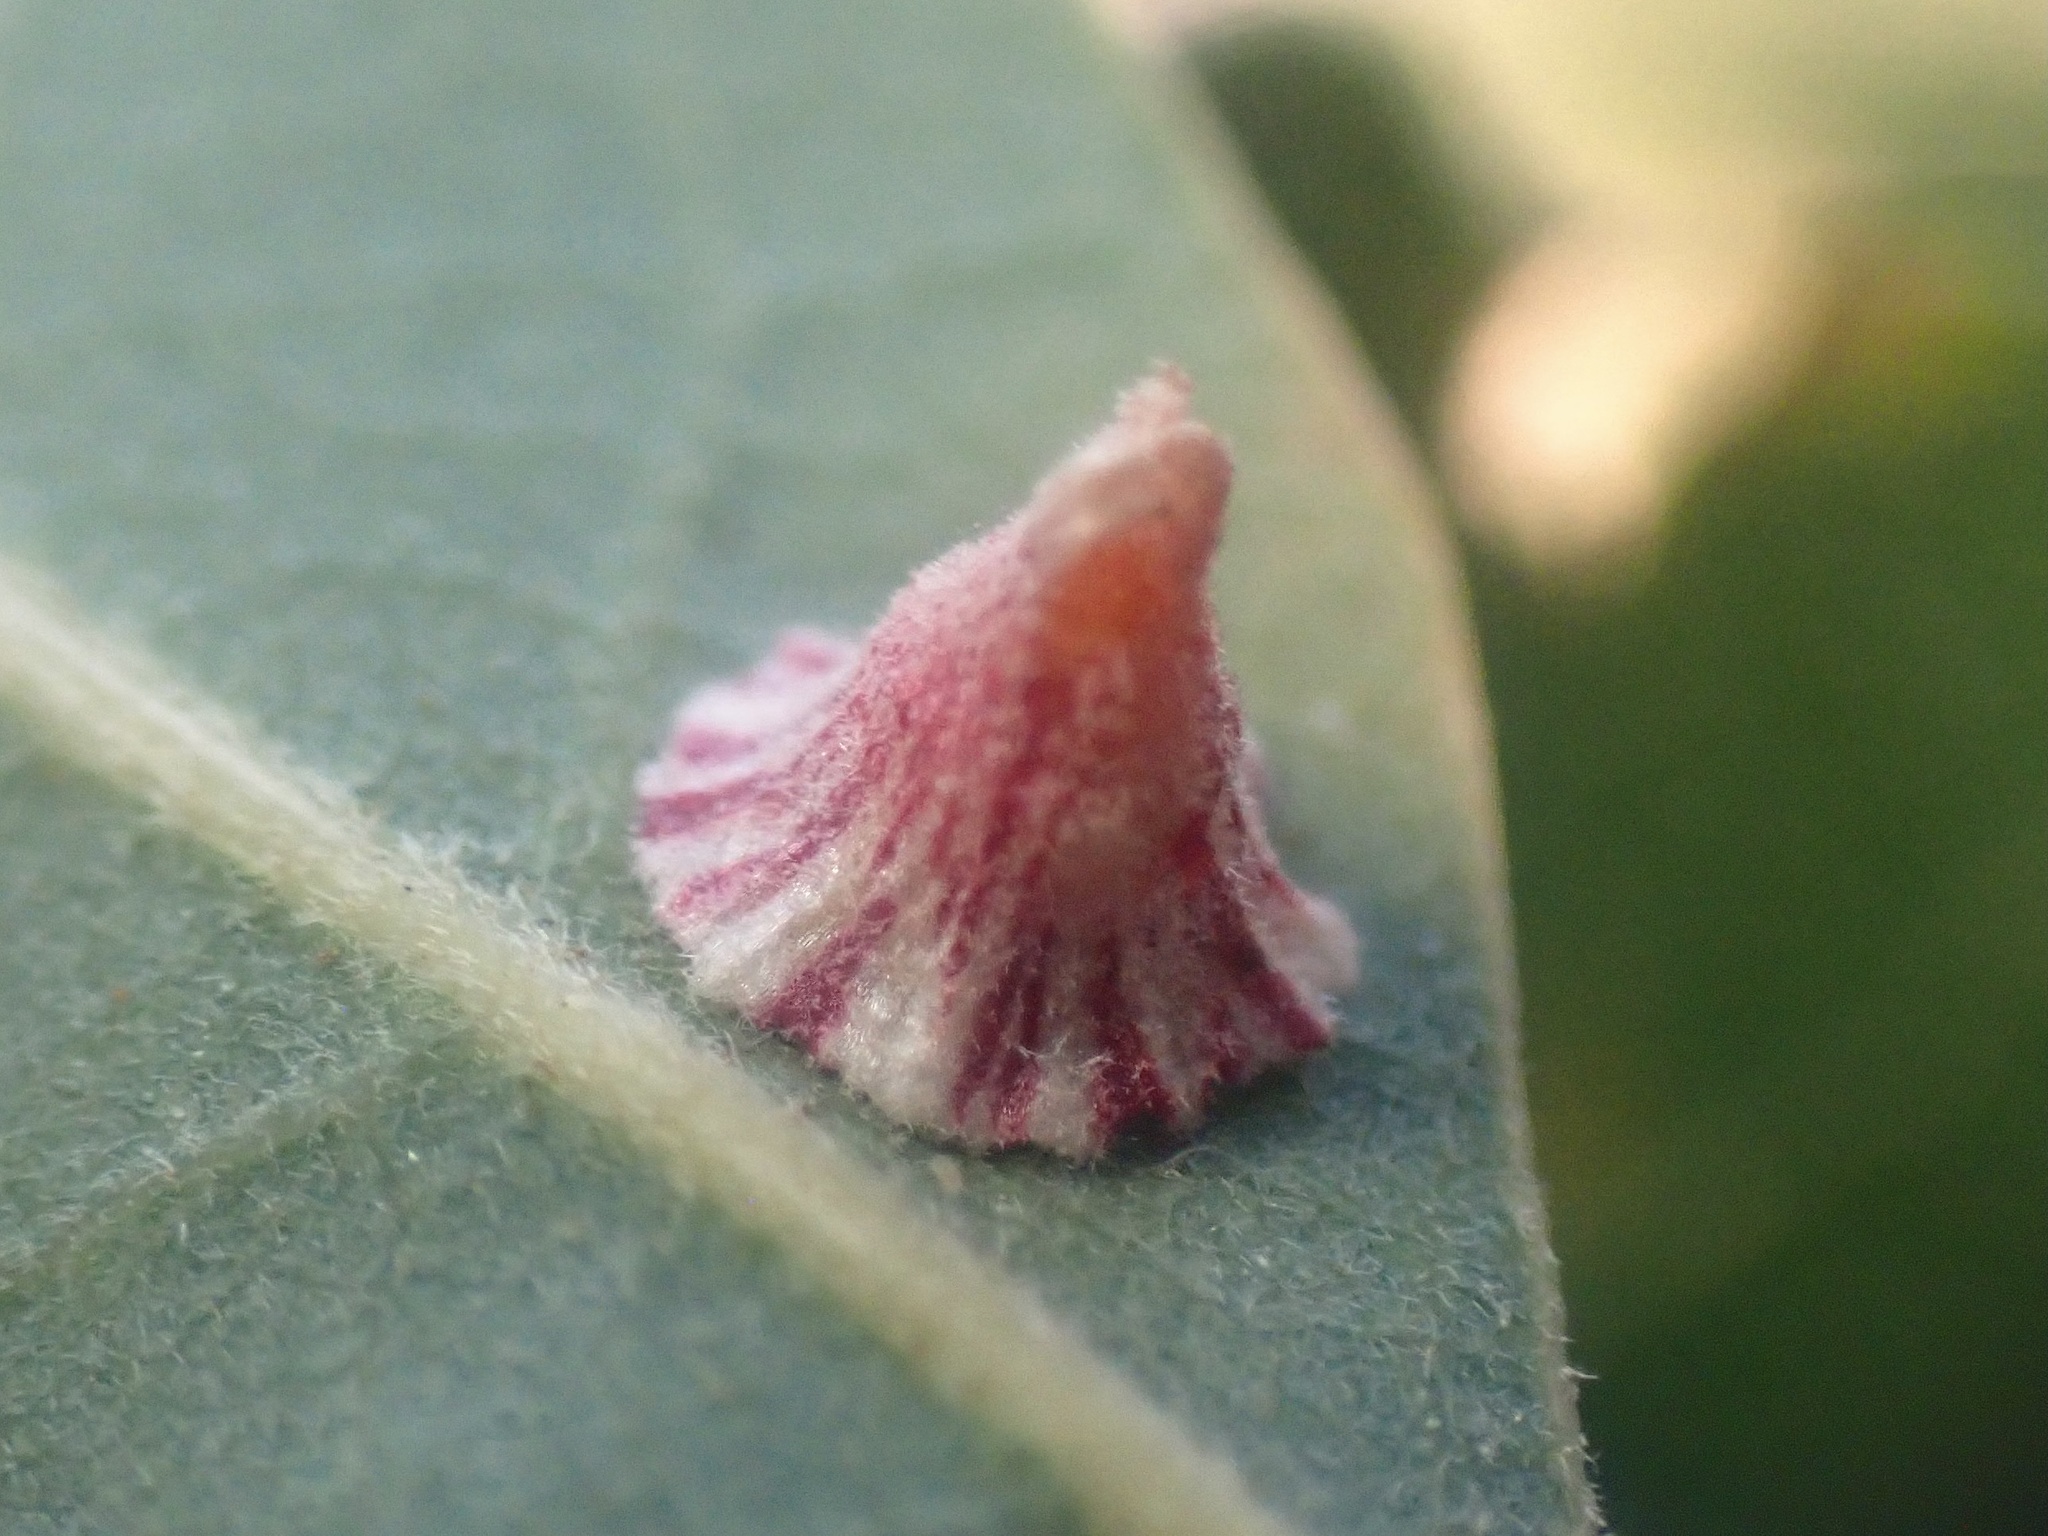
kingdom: Animalia
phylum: Arthropoda
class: Insecta
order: Hymenoptera
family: Cynipidae
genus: Andricus
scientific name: Andricus
